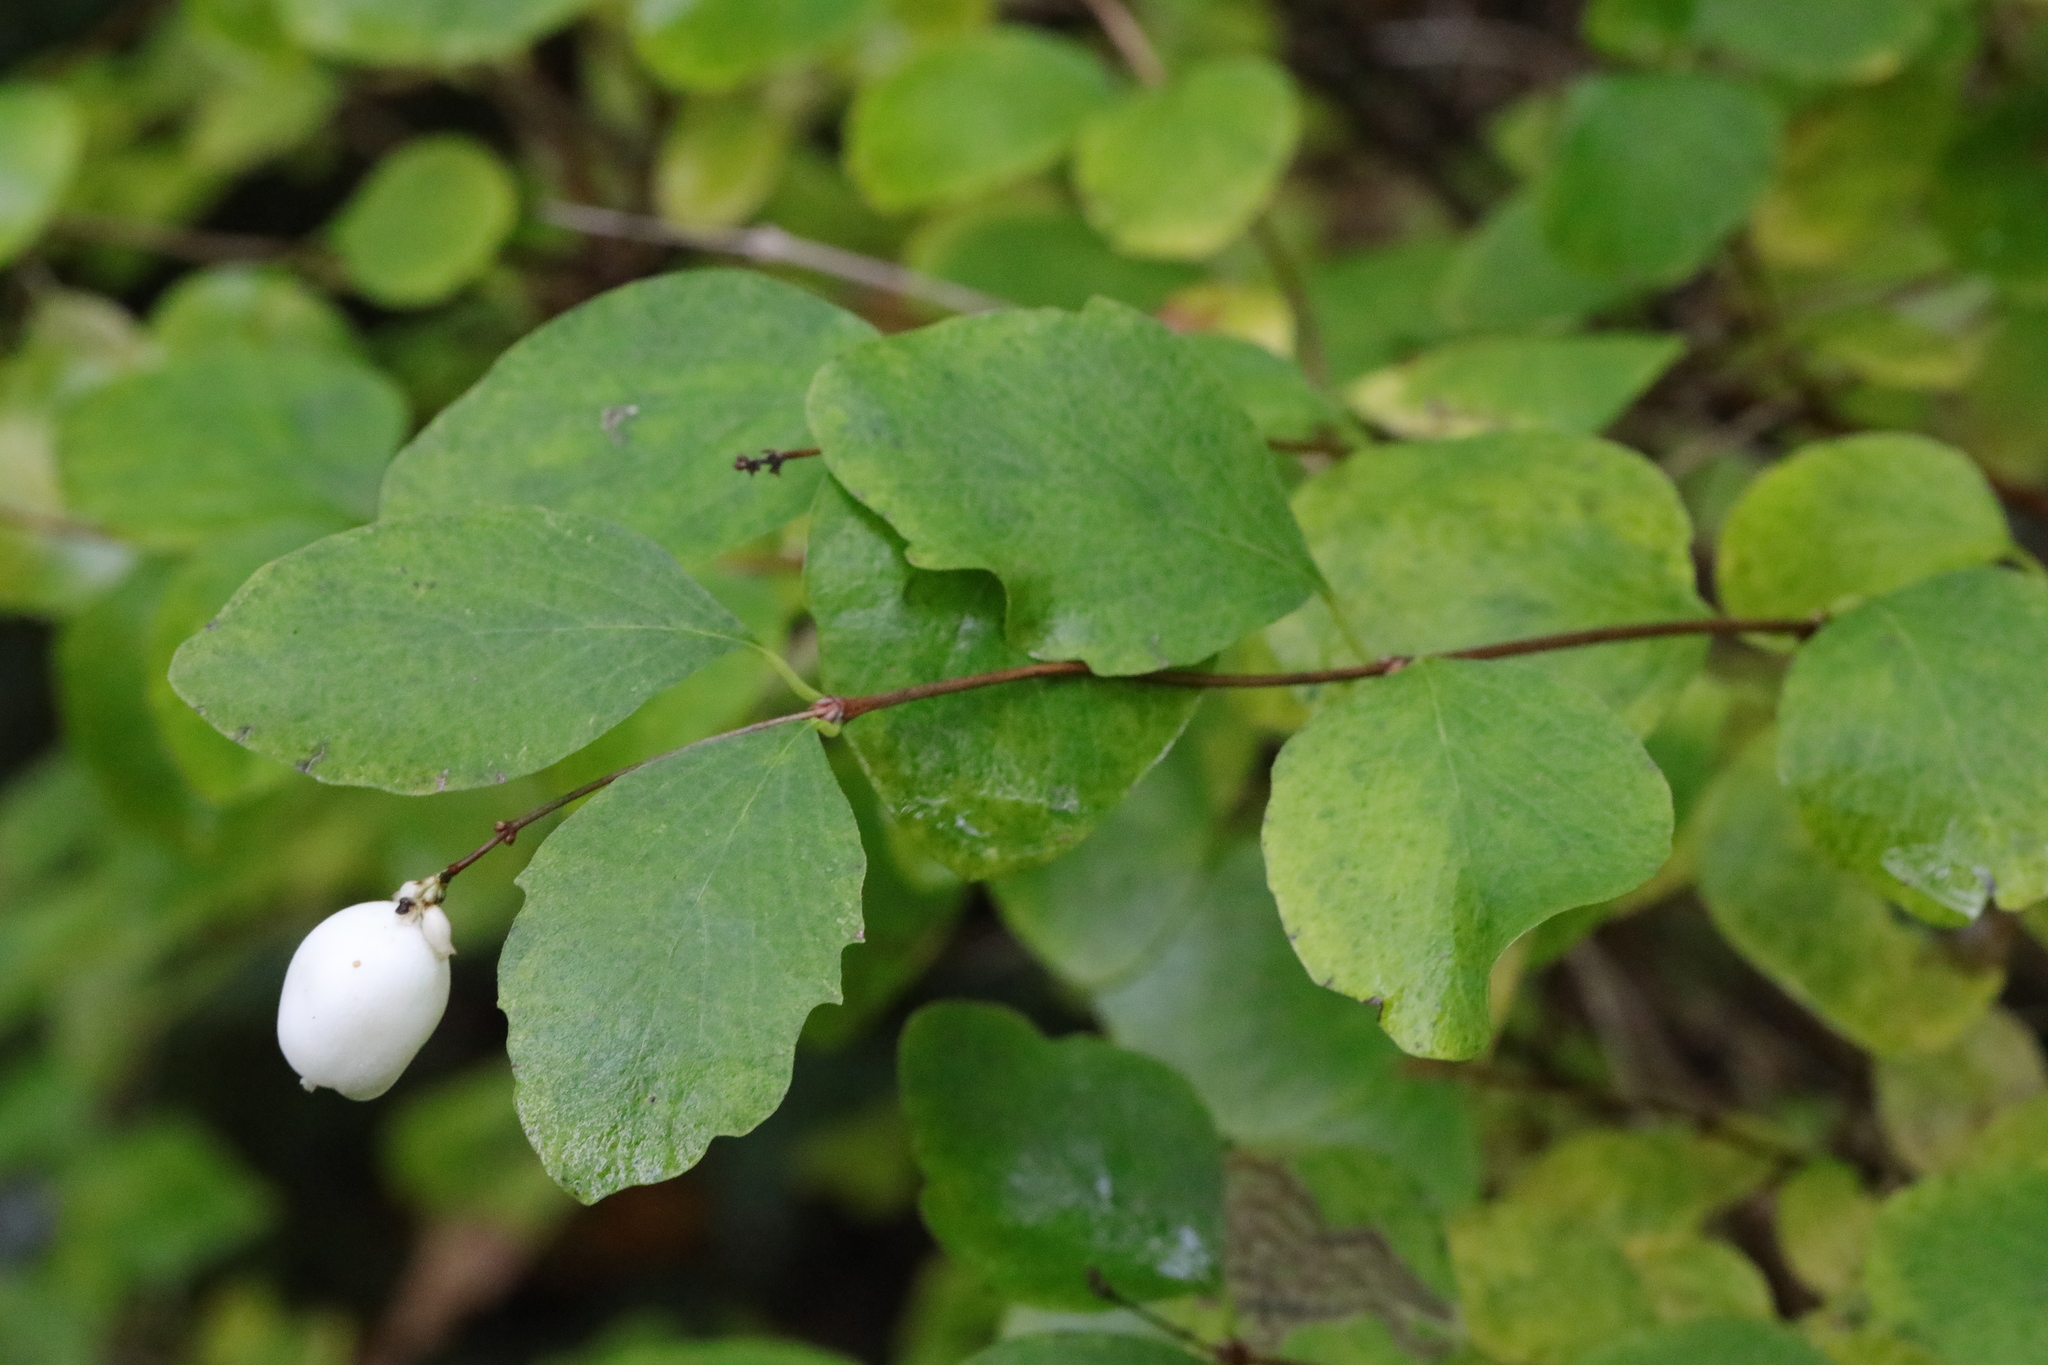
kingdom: Plantae
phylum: Tracheophyta
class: Magnoliopsida
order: Dipsacales
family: Caprifoliaceae
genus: Symphoricarpos
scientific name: Symphoricarpos albus
